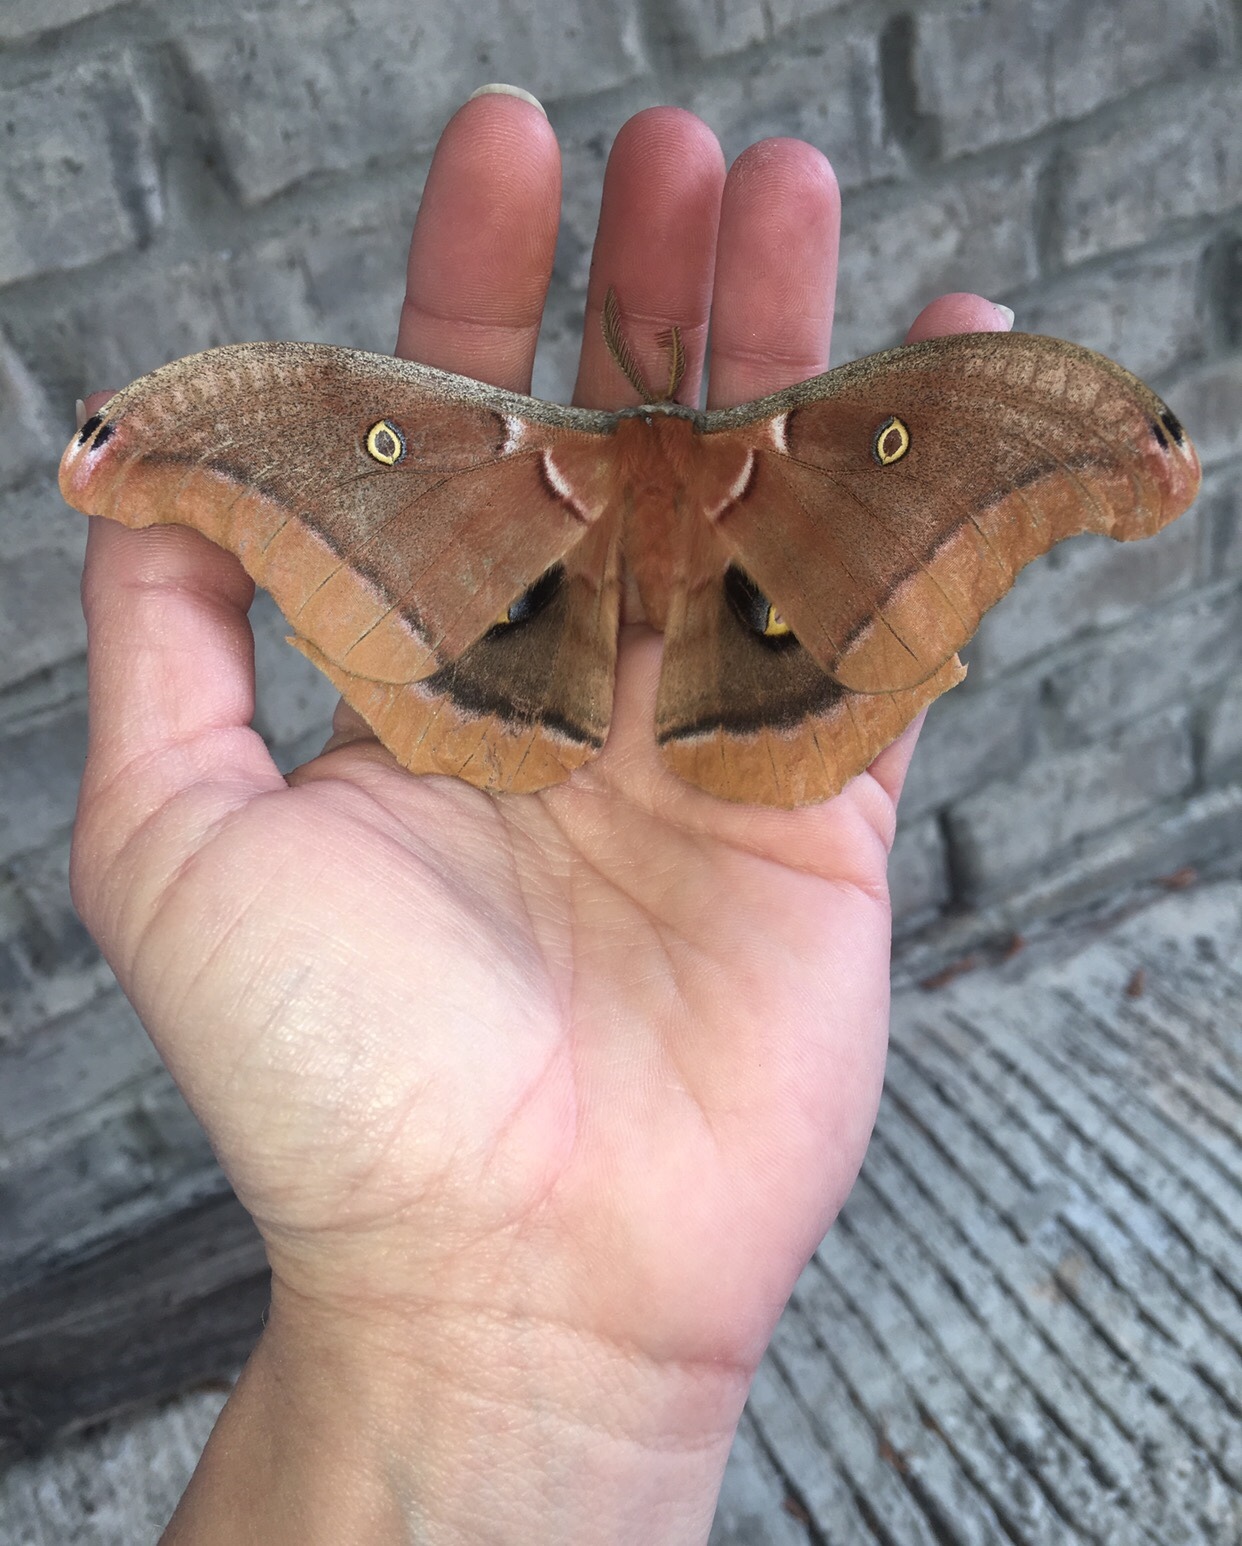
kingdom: Animalia
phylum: Arthropoda
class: Insecta
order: Lepidoptera
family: Saturniidae
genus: Antheraea
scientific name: Antheraea polyphemus
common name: Polyphemus moth
